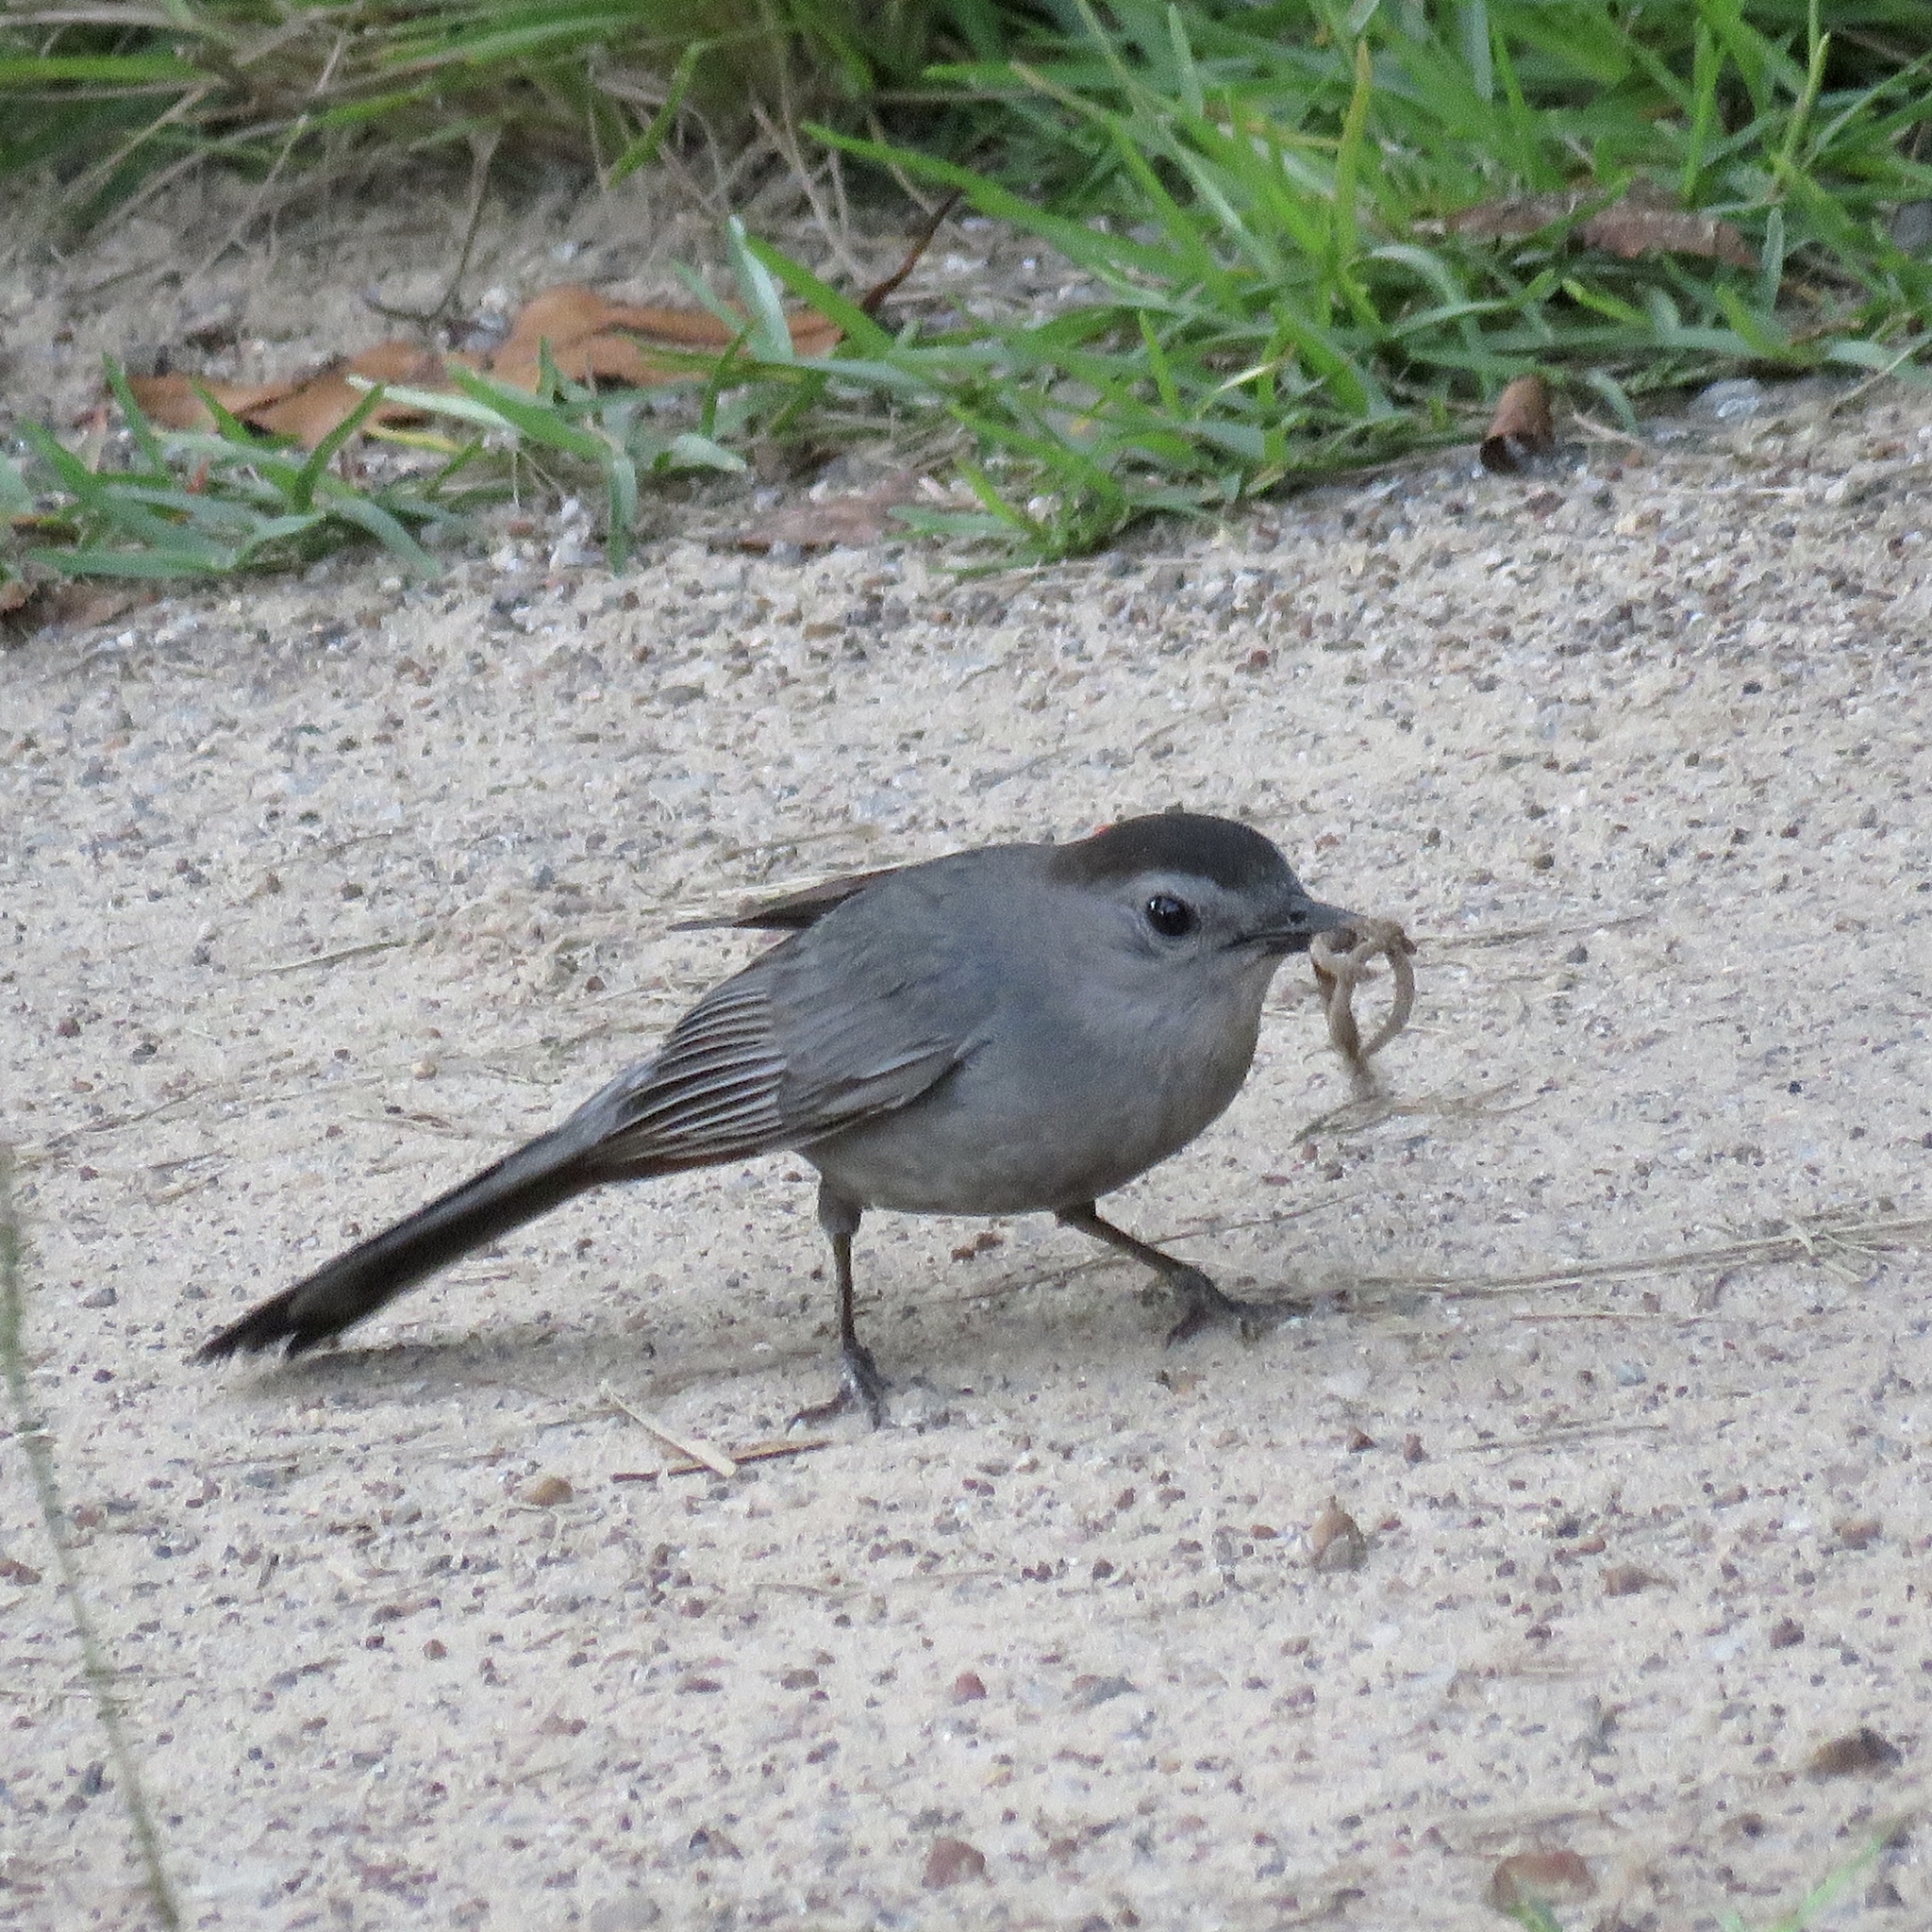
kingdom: Animalia
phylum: Chordata
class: Aves
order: Passeriformes
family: Mimidae
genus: Dumetella
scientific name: Dumetella carolinensis
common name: Gray catbird
